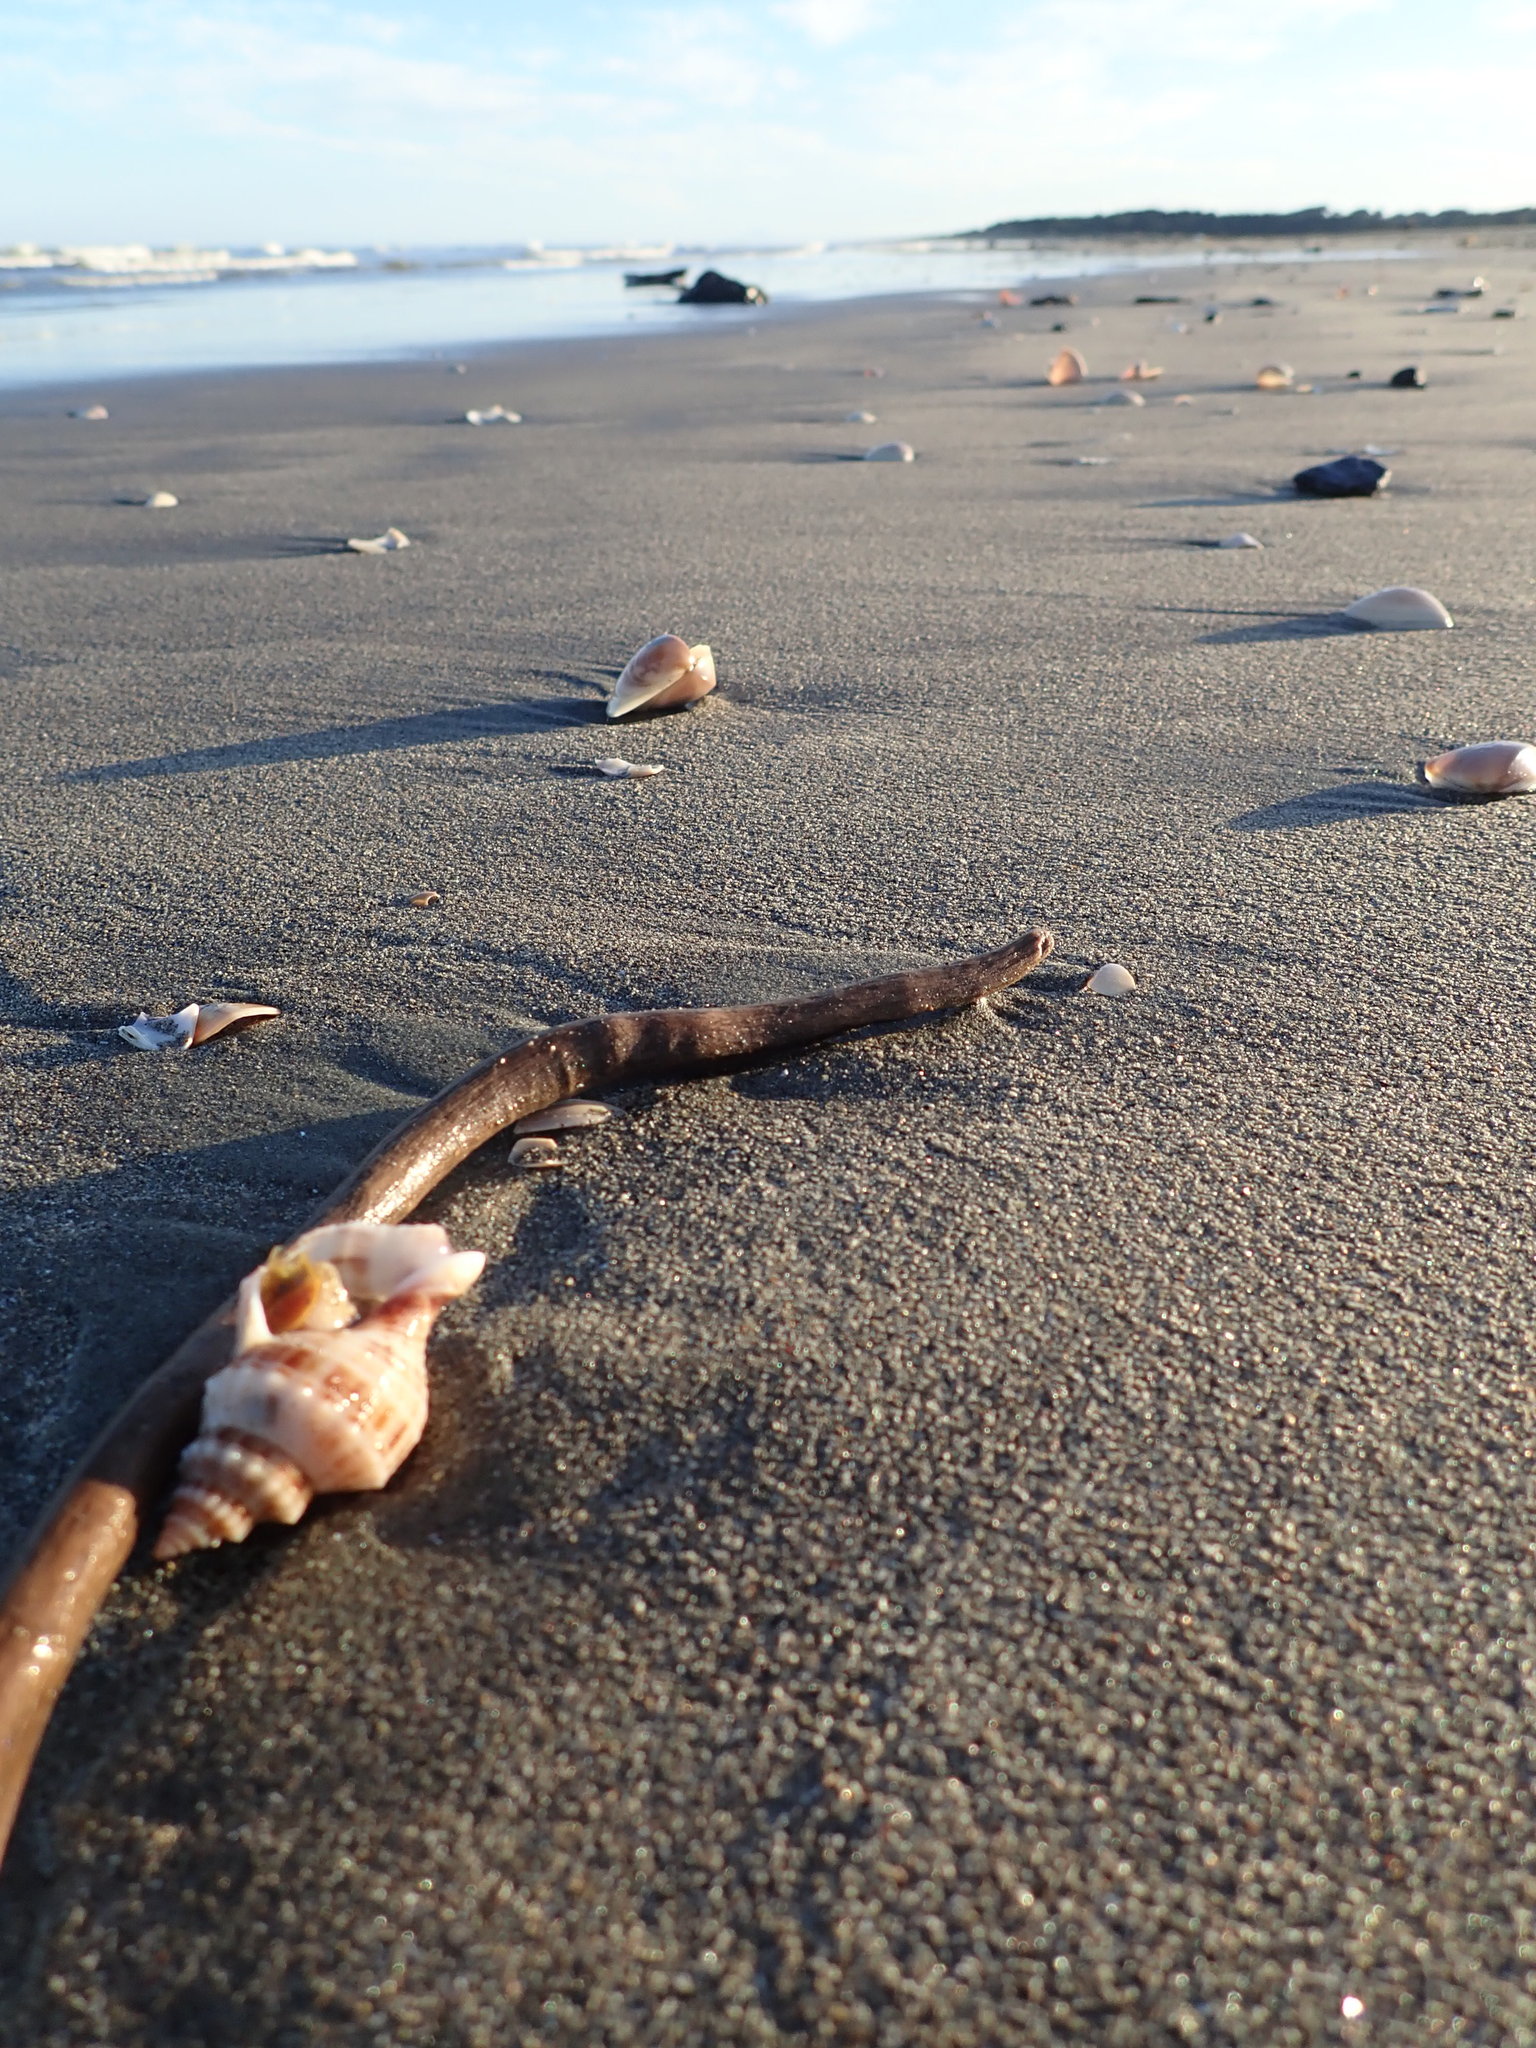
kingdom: Animalia
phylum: Mollusca
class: Gastropoda
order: Neogastropoda
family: Prosiphonidae
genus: Austrofusus
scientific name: Austrofusus glans
